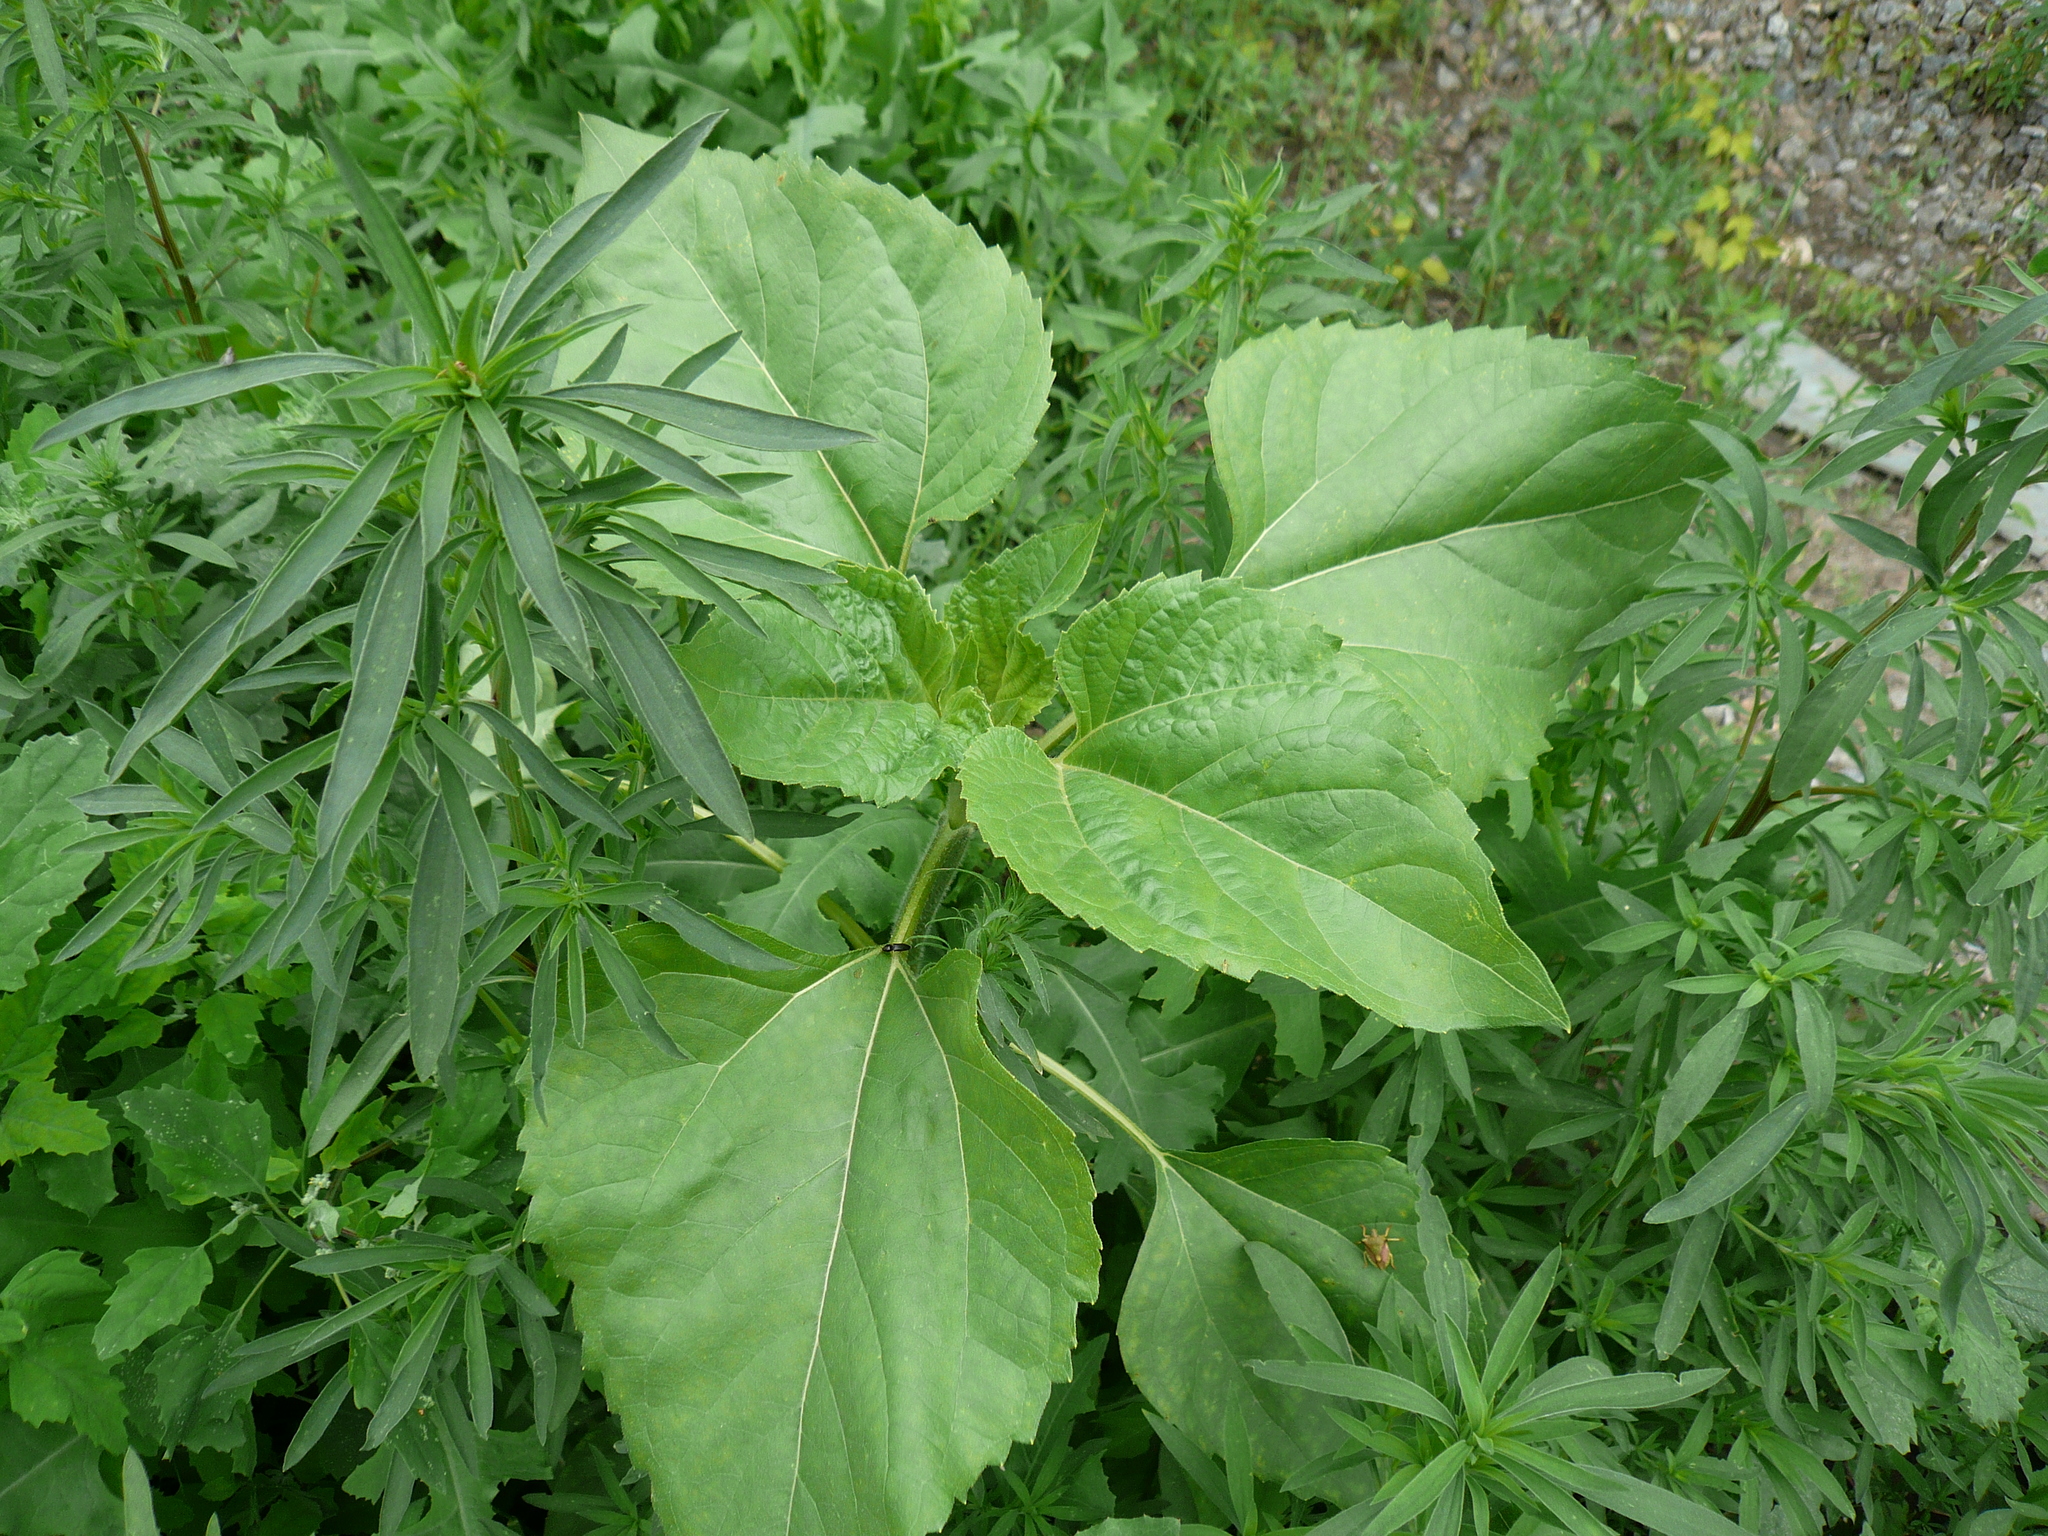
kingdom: Plantae
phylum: Tracheophyta
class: Magnoliopsida
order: Asterales
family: Asteraceae
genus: Helianthus
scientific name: Helianthus annuus
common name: Sunflower
